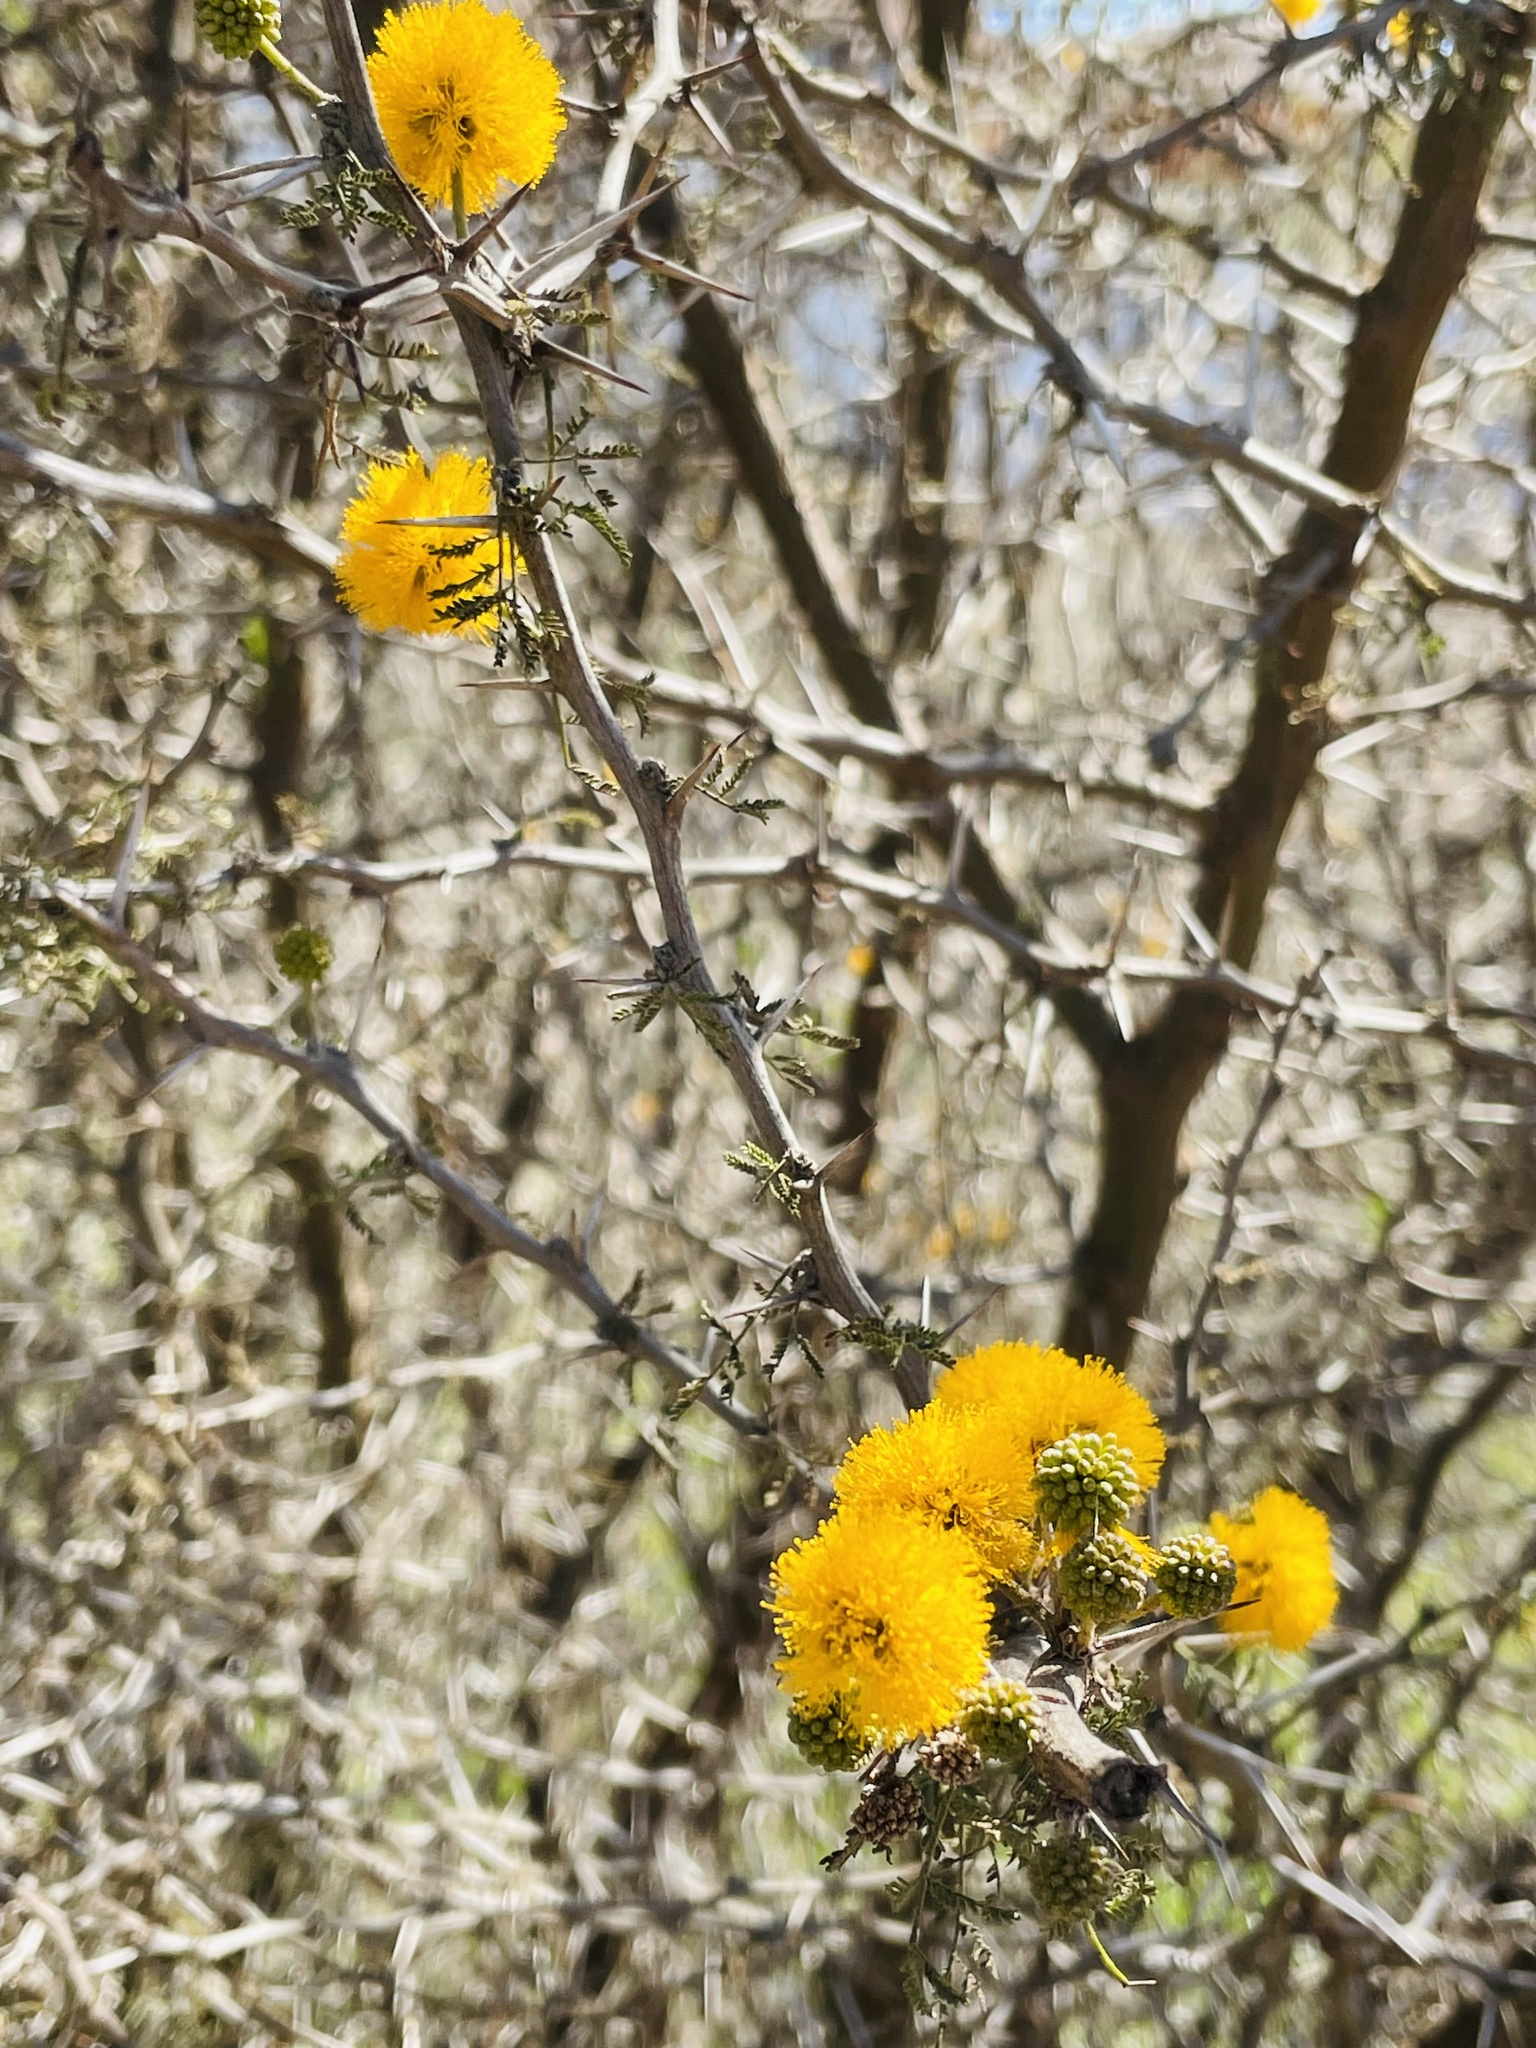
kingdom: Plantae
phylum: Tracheophyta
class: Magnoliopsida
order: Fabales
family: Fabaceae
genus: Vachellia
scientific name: Vachellia caven
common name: Roman cassie
